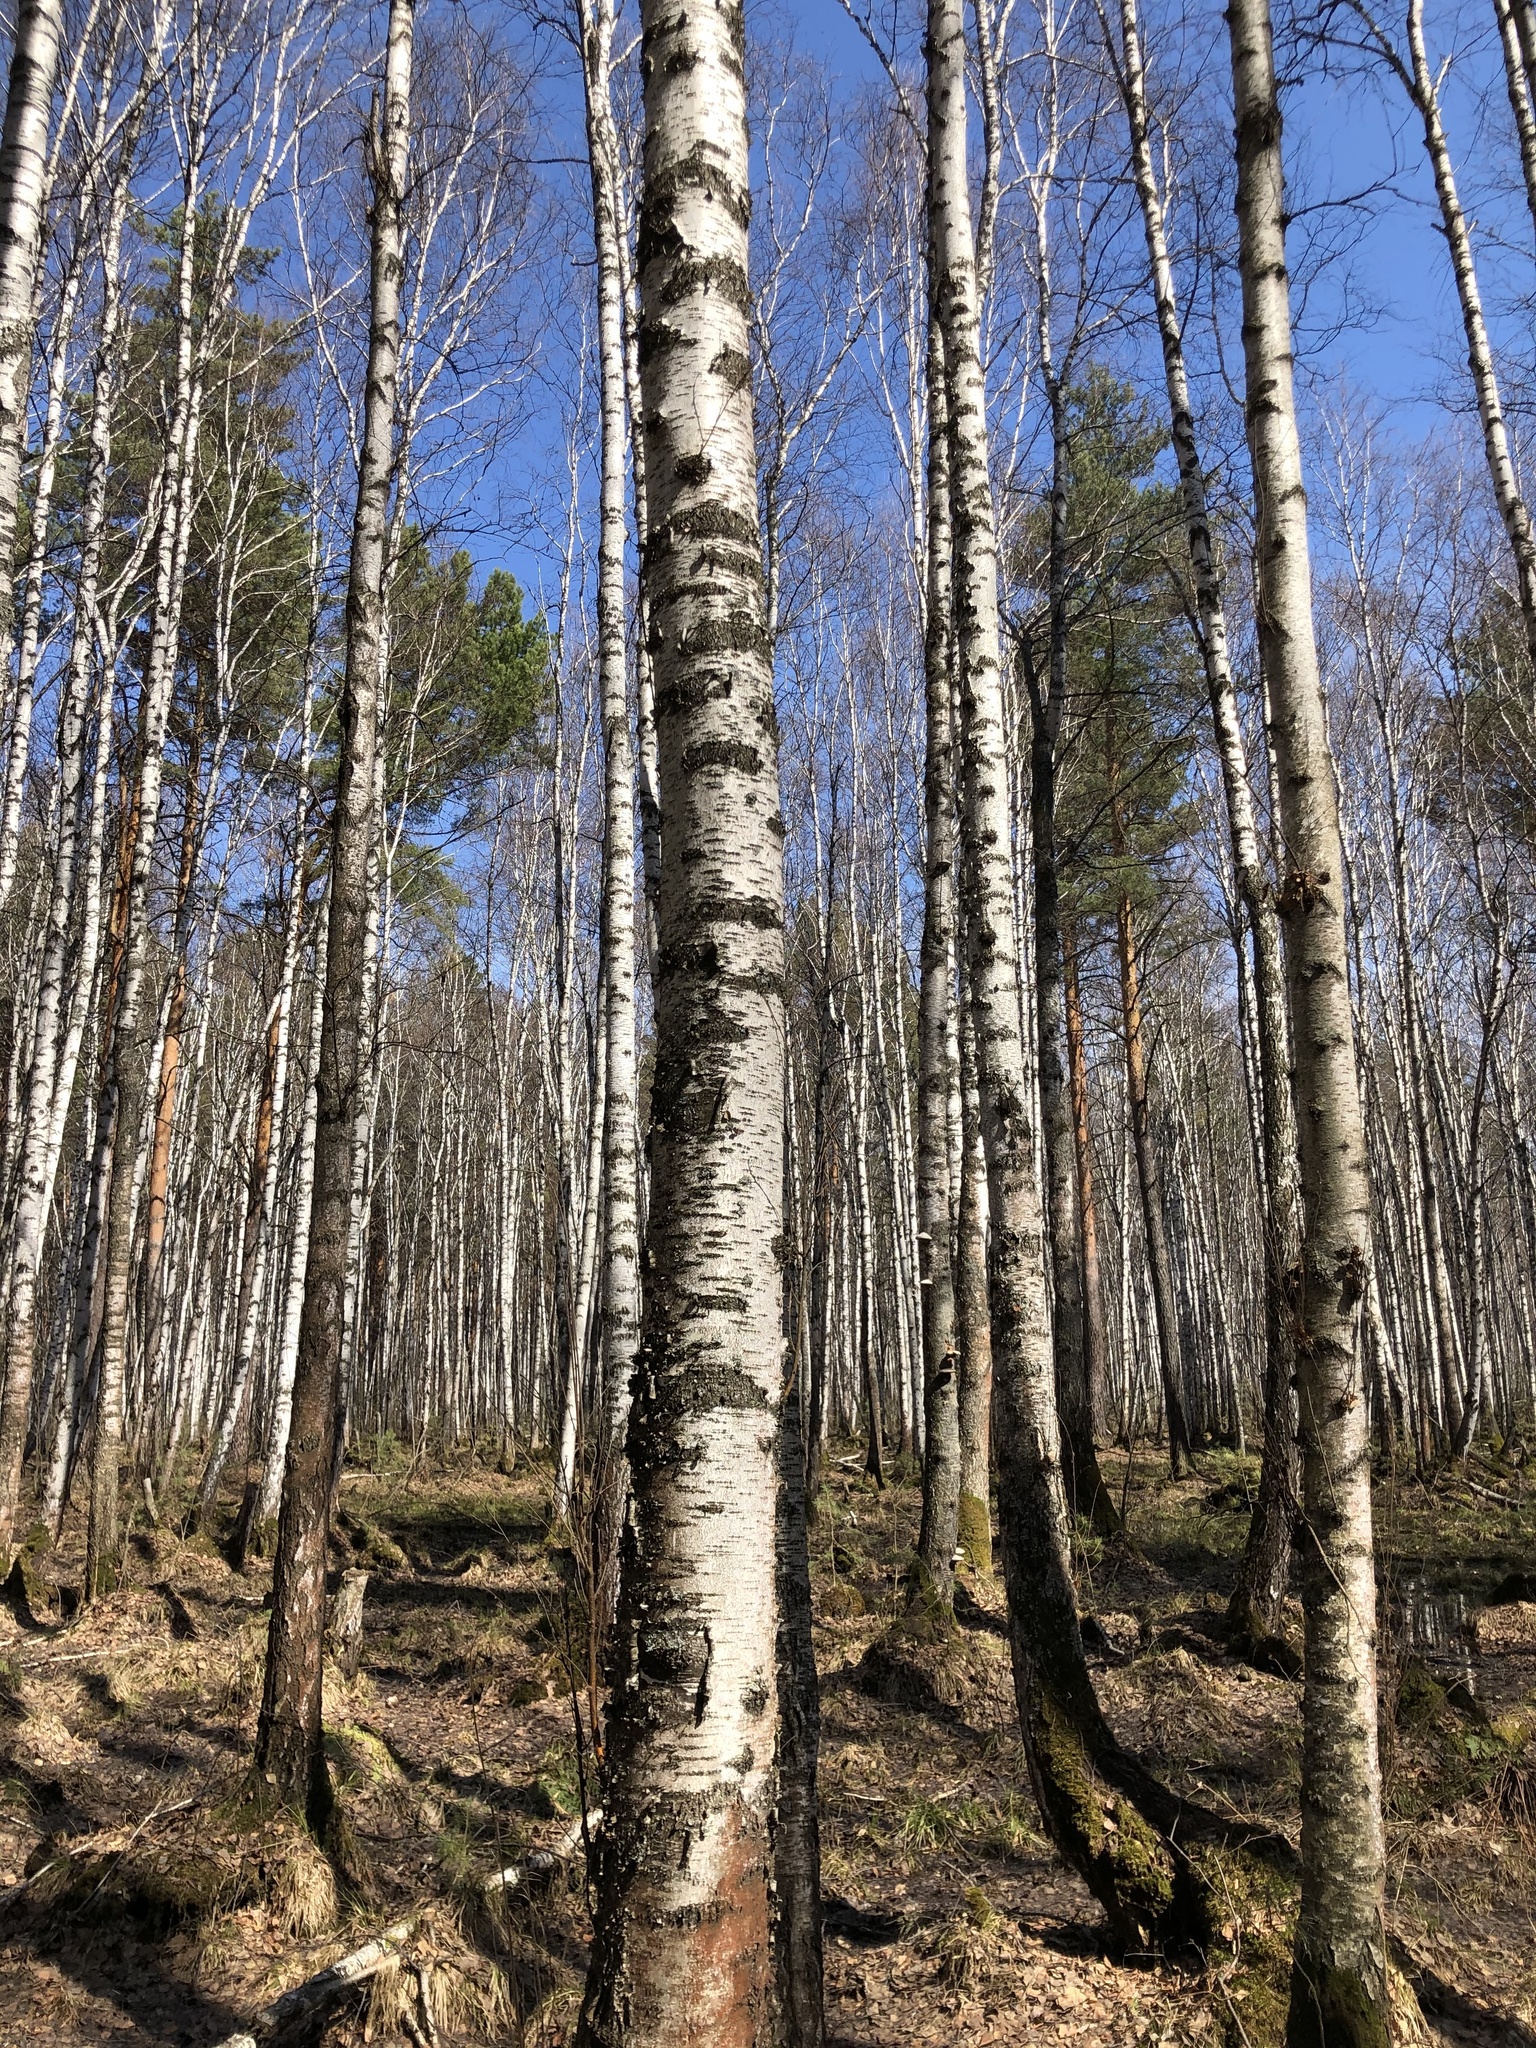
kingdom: Plantae
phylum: Tracheophyta
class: Magnoliopsida
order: Fagales
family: Betulaceae
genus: Betula
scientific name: Betula pubescens
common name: Downy birch
